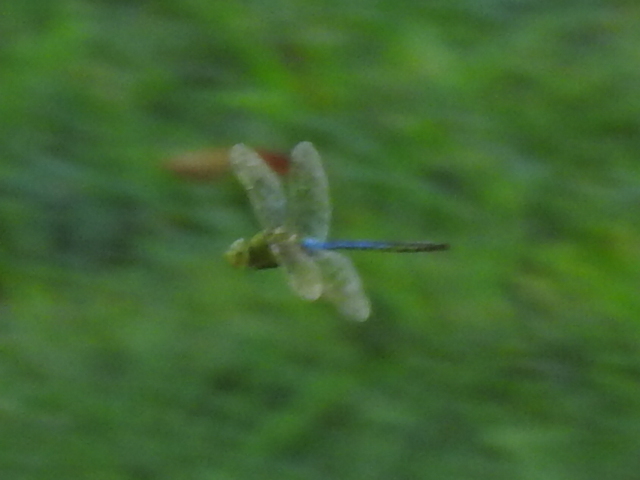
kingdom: Animalia
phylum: Arthropoda
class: Insecta
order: Odonata
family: Aeshnidae
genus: Anax
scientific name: Anax junius
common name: Common green darner
